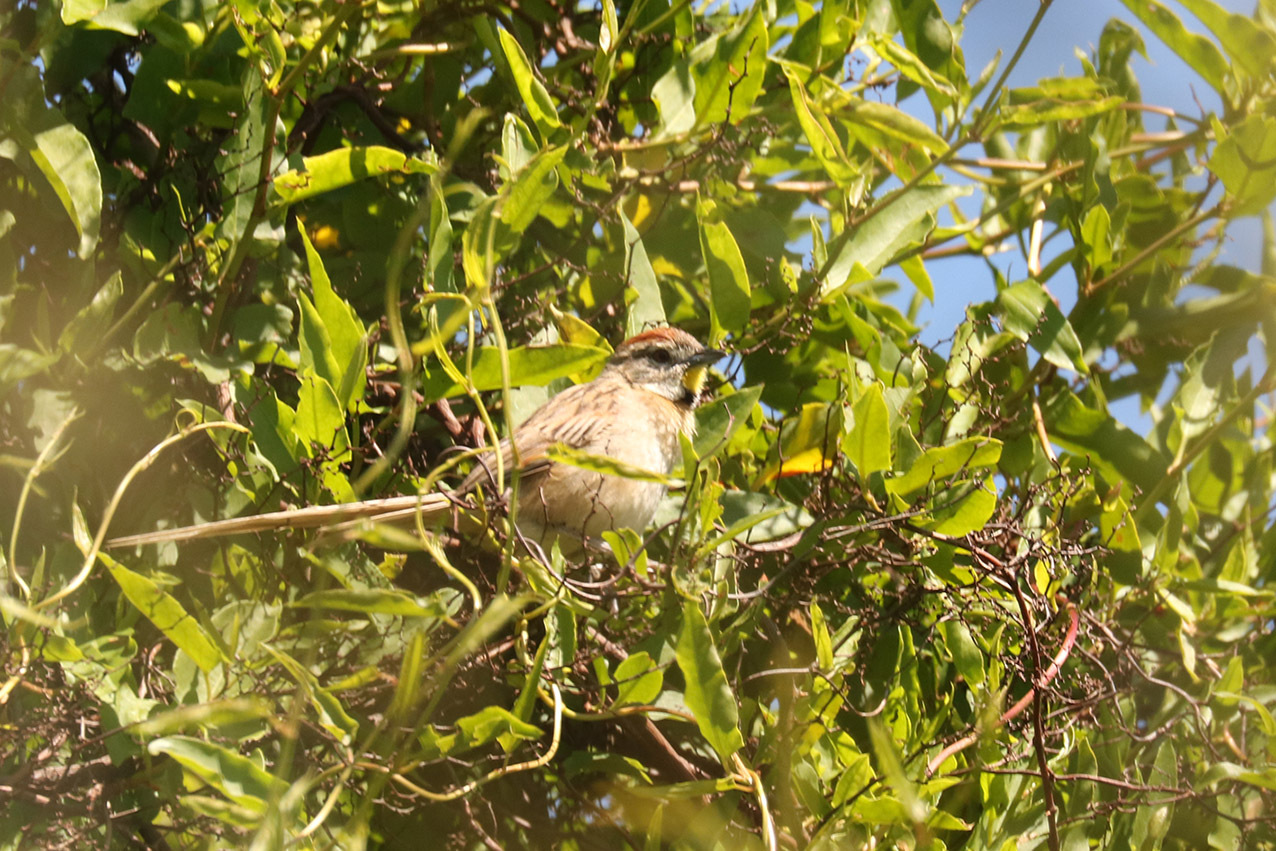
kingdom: Animalia
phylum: Chordata
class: Aves
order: Passeriformes
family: Furnariidae
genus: Schoeniophylax
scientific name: Schoeniophylax phryganophilus
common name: Chotoy spinetail
